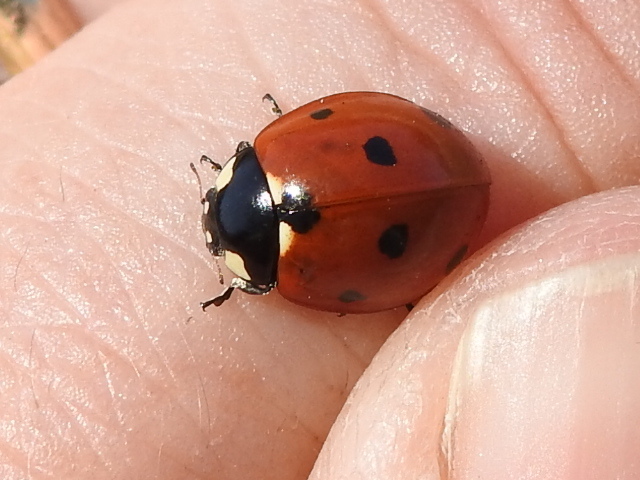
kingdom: Animalia
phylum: Arthropoda
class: Insecta
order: Coleoptera
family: Coccinellidae
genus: Coccinella
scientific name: Coccinella septempunctata
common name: Sevenspotted lady beetle
